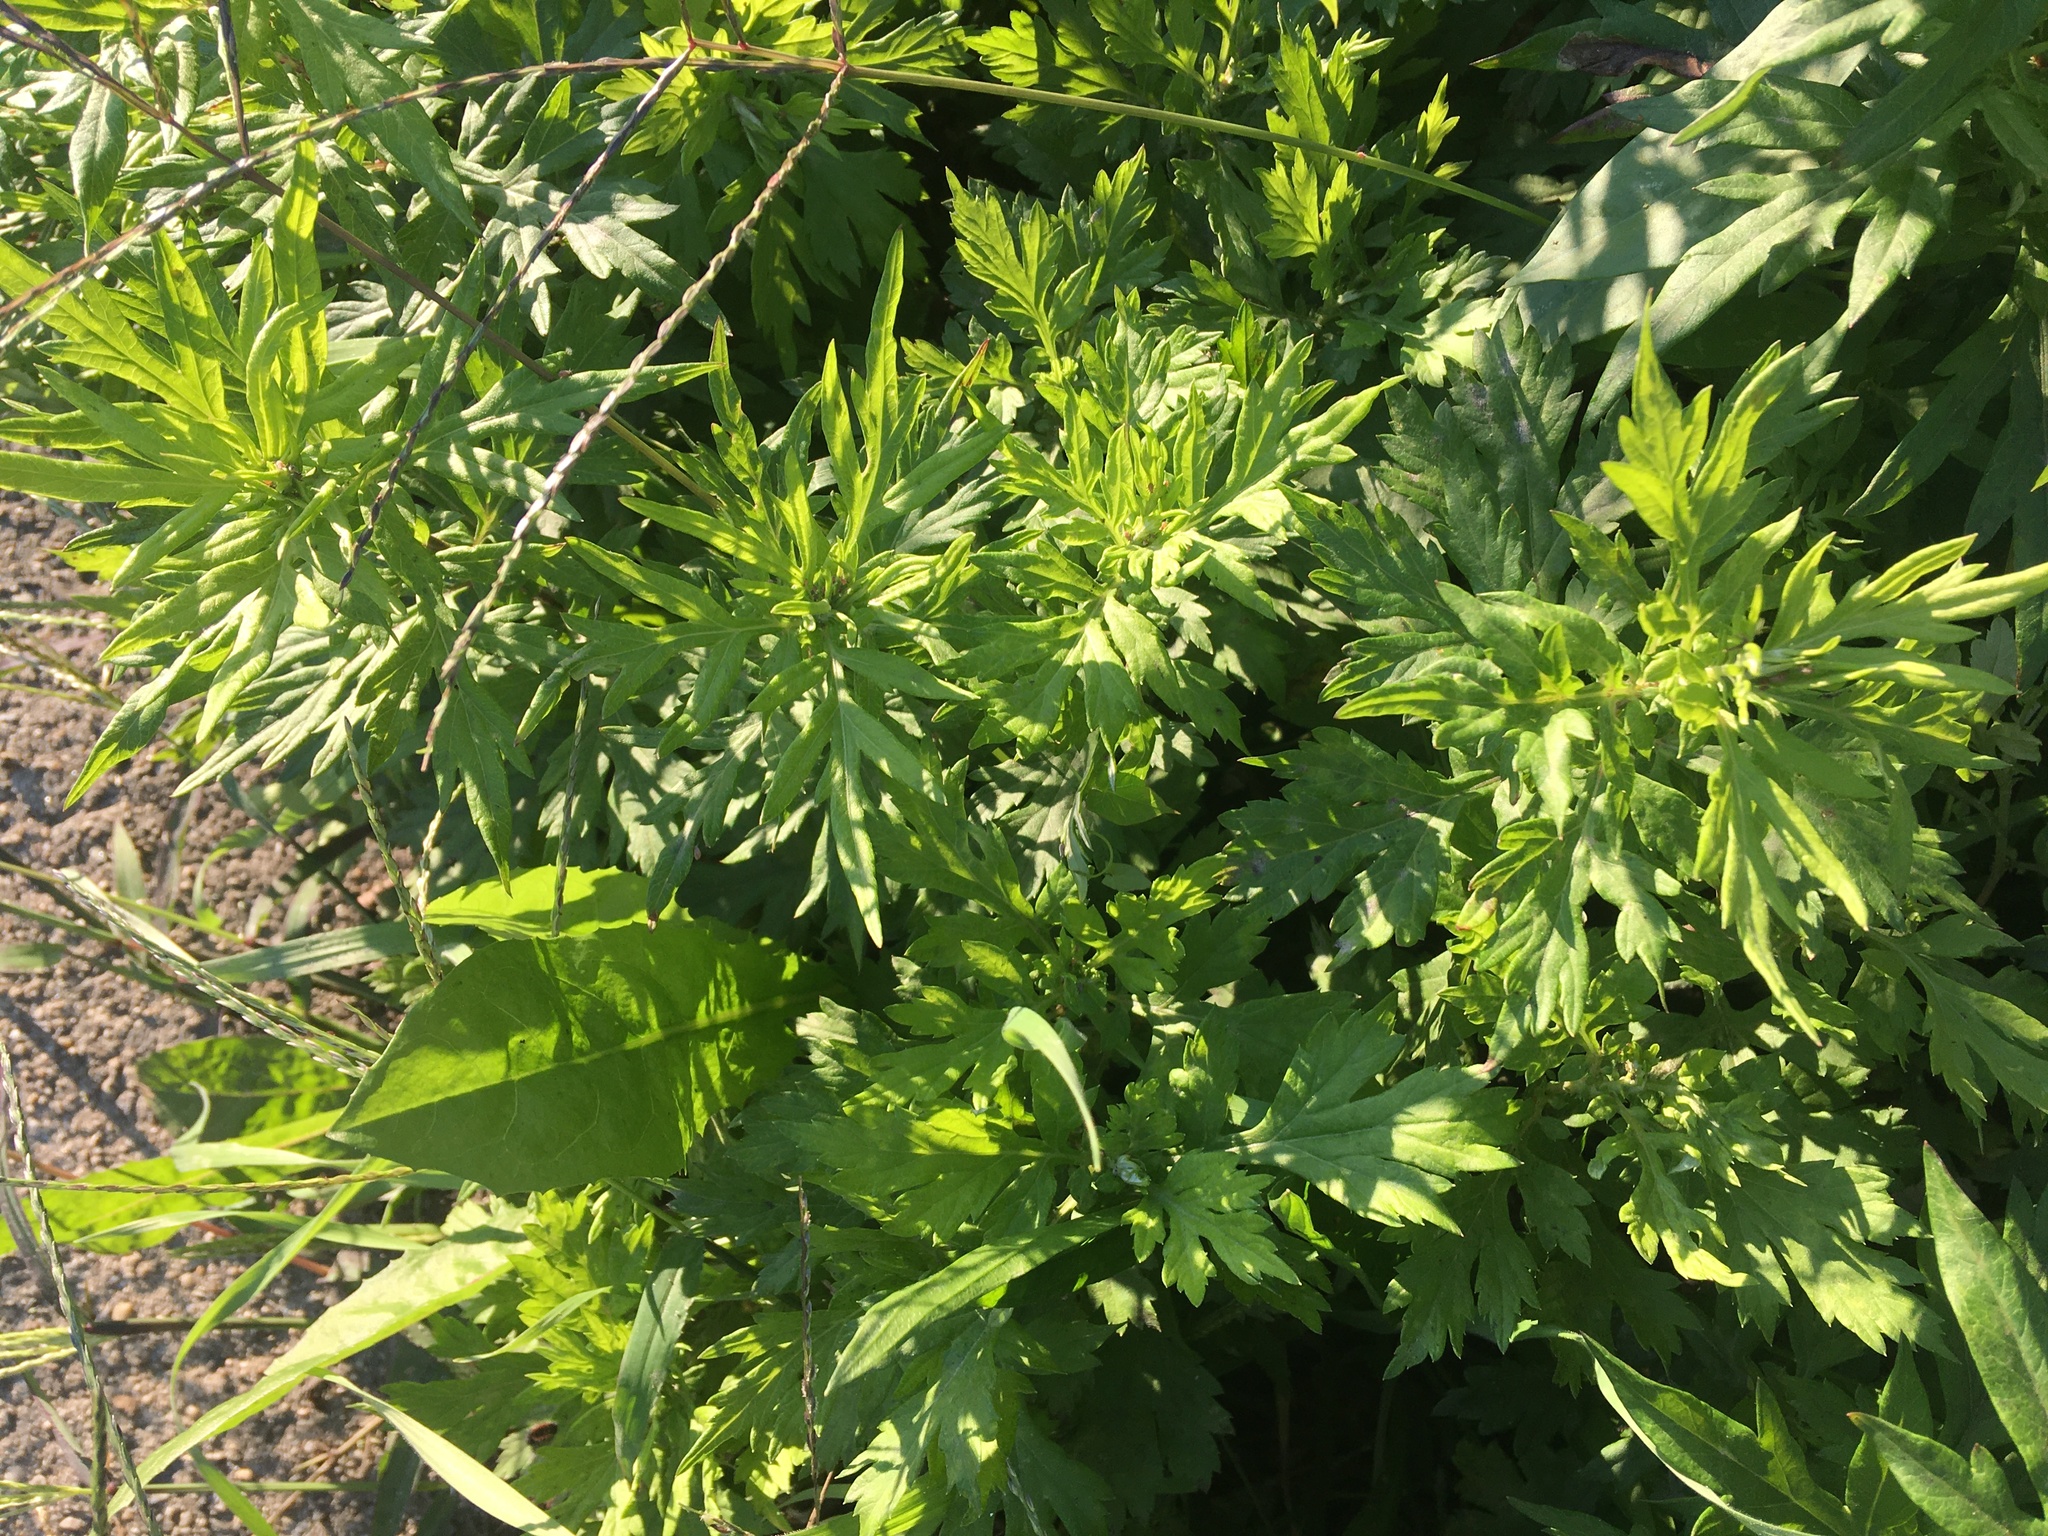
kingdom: Plantae
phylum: Tracheophyta
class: Magnoliopsida
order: Asterales
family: Asteraceae
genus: Artemisia
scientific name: Artemisia vulgaris
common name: Mugwort
